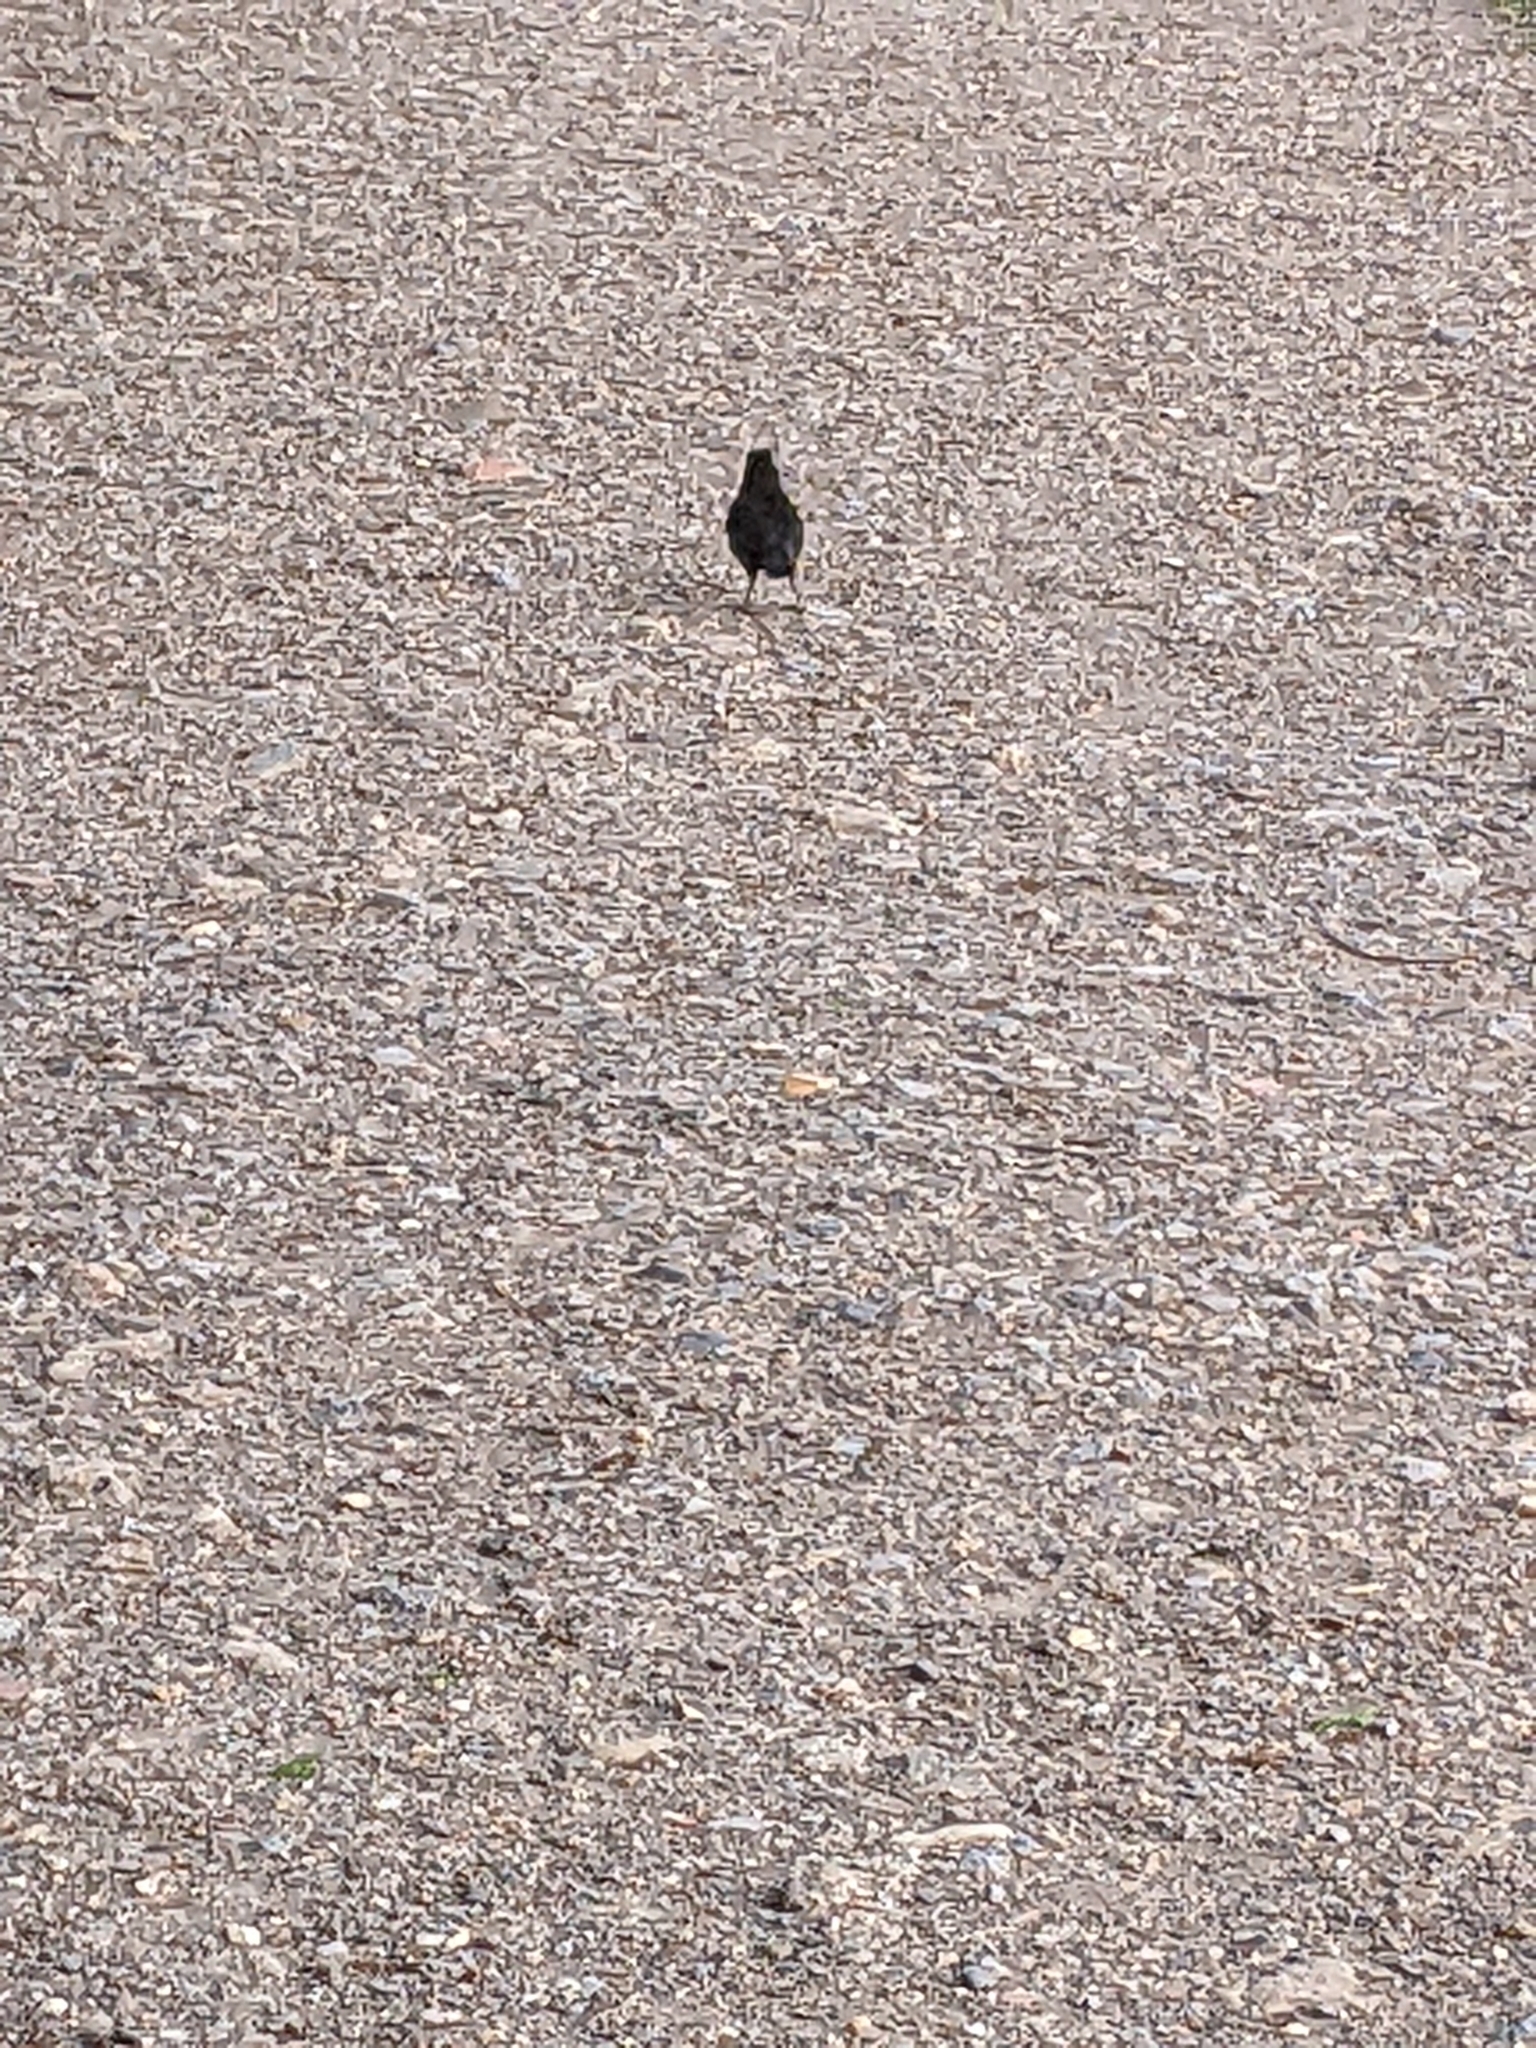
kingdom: Animalia
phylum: Chordata
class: Aves
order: Passeriformes
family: Turdidae
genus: Turdus
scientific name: Turdus merula
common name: Common blackbird
